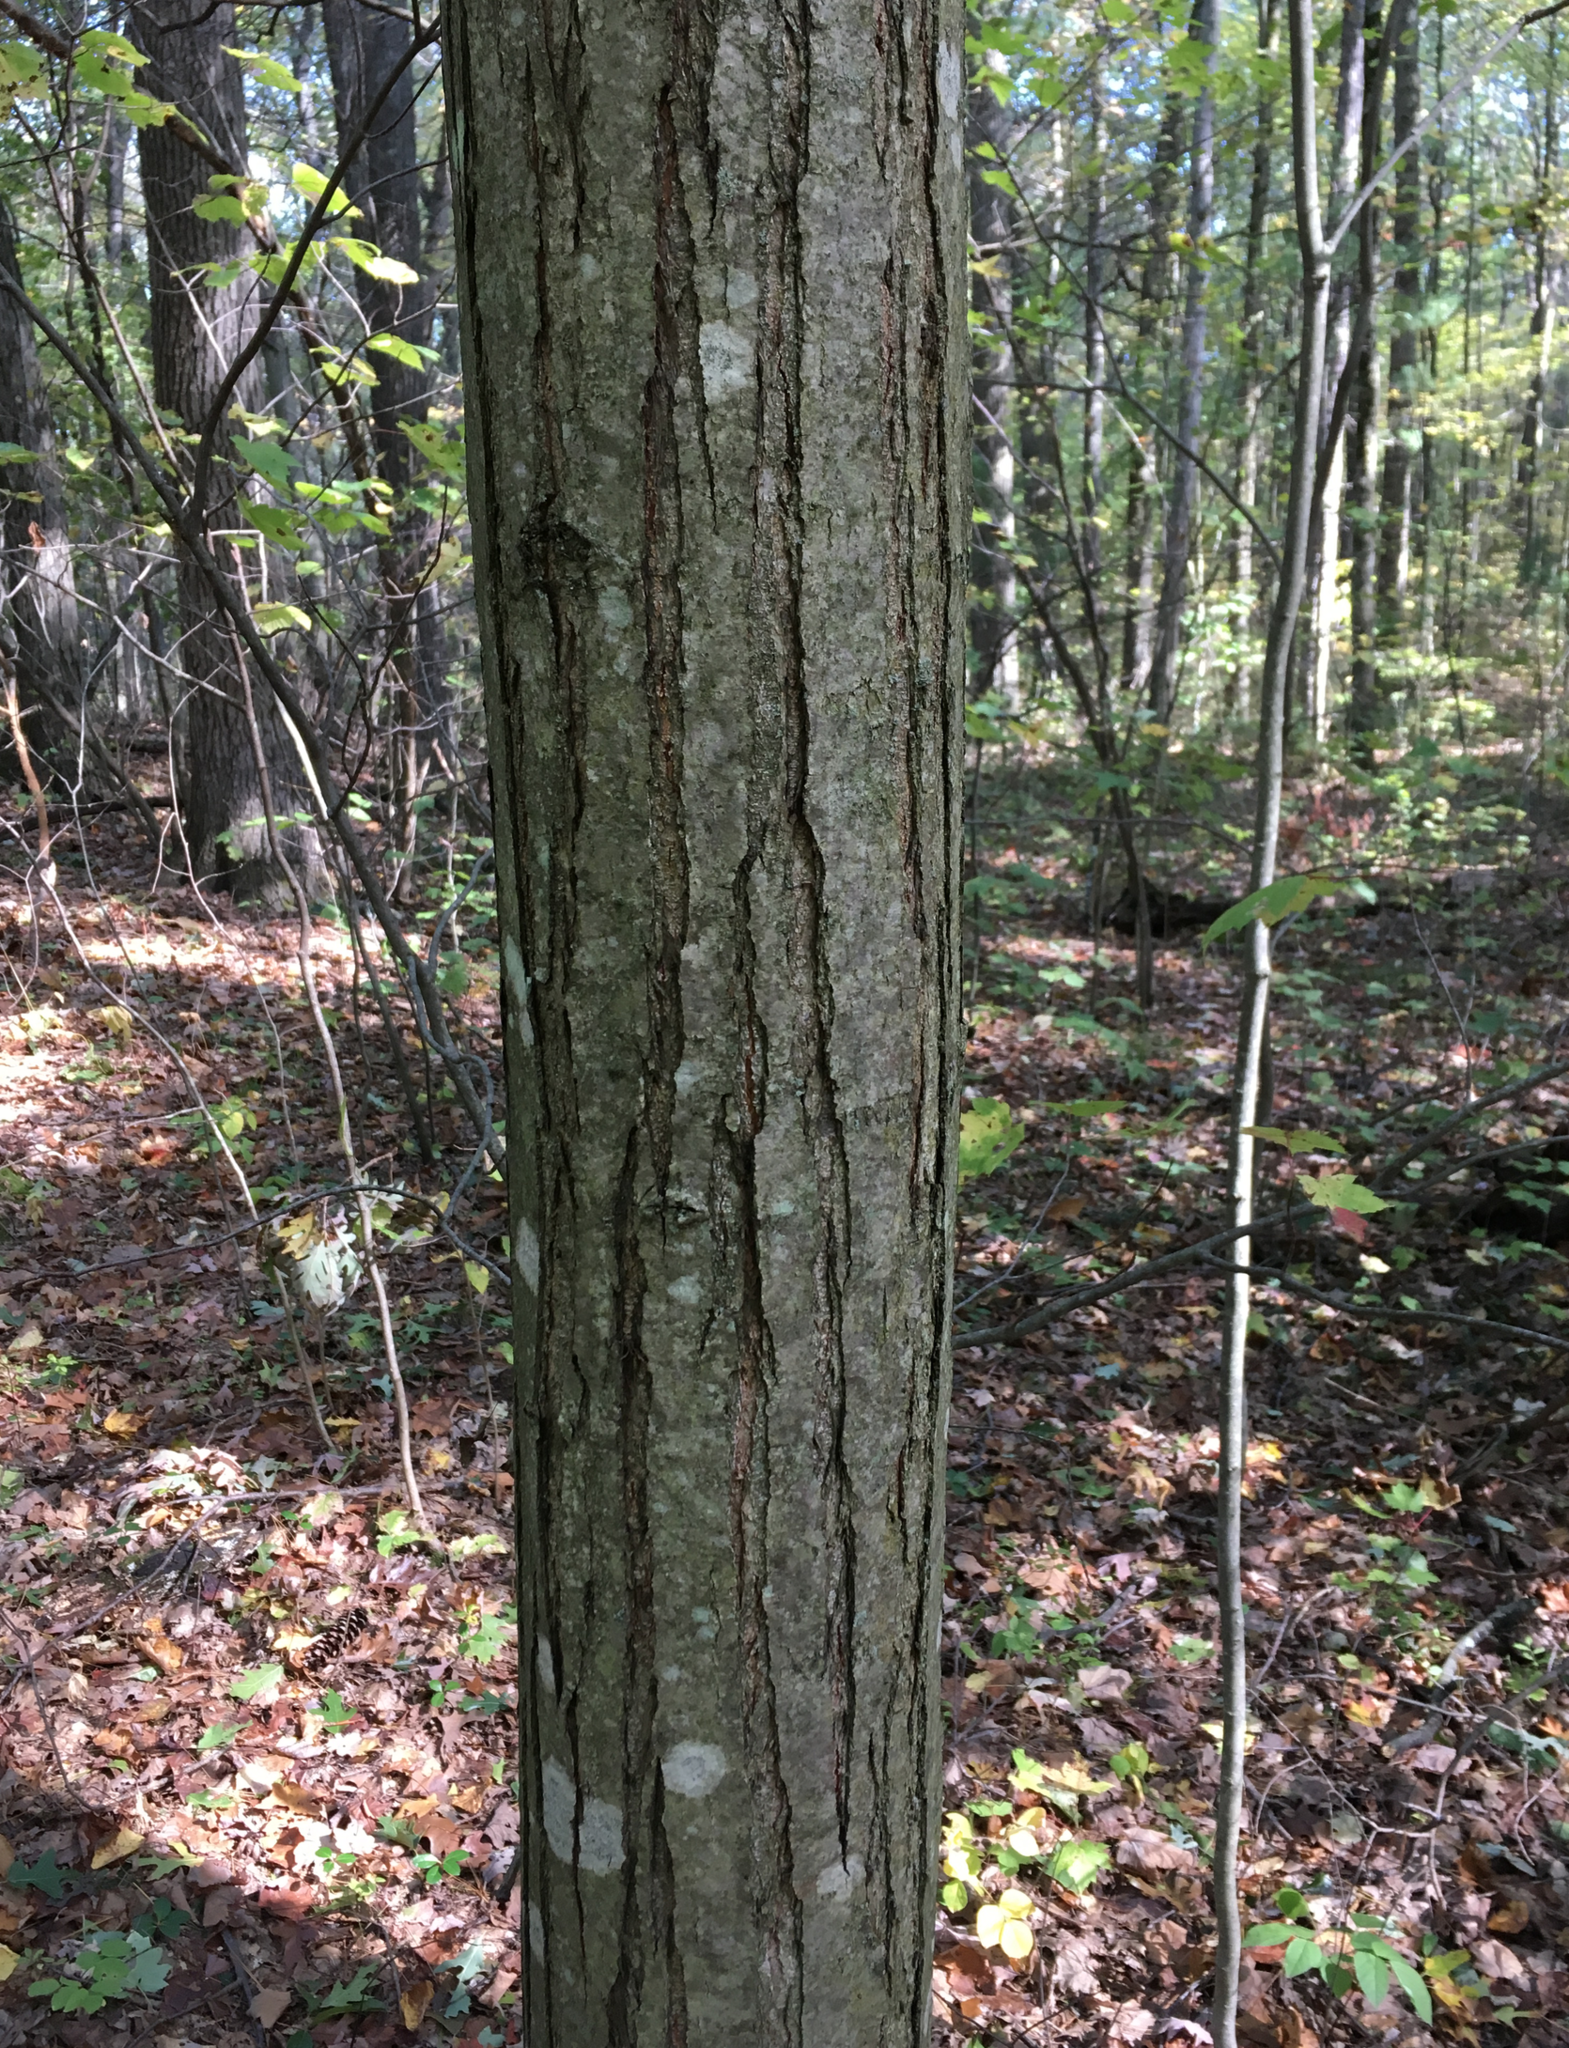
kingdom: Plantae
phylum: Tracheophyta
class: Magnoliopsida
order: Fagales
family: Fagaceae
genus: Castanea
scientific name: Castanea dentata
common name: American chestnut
